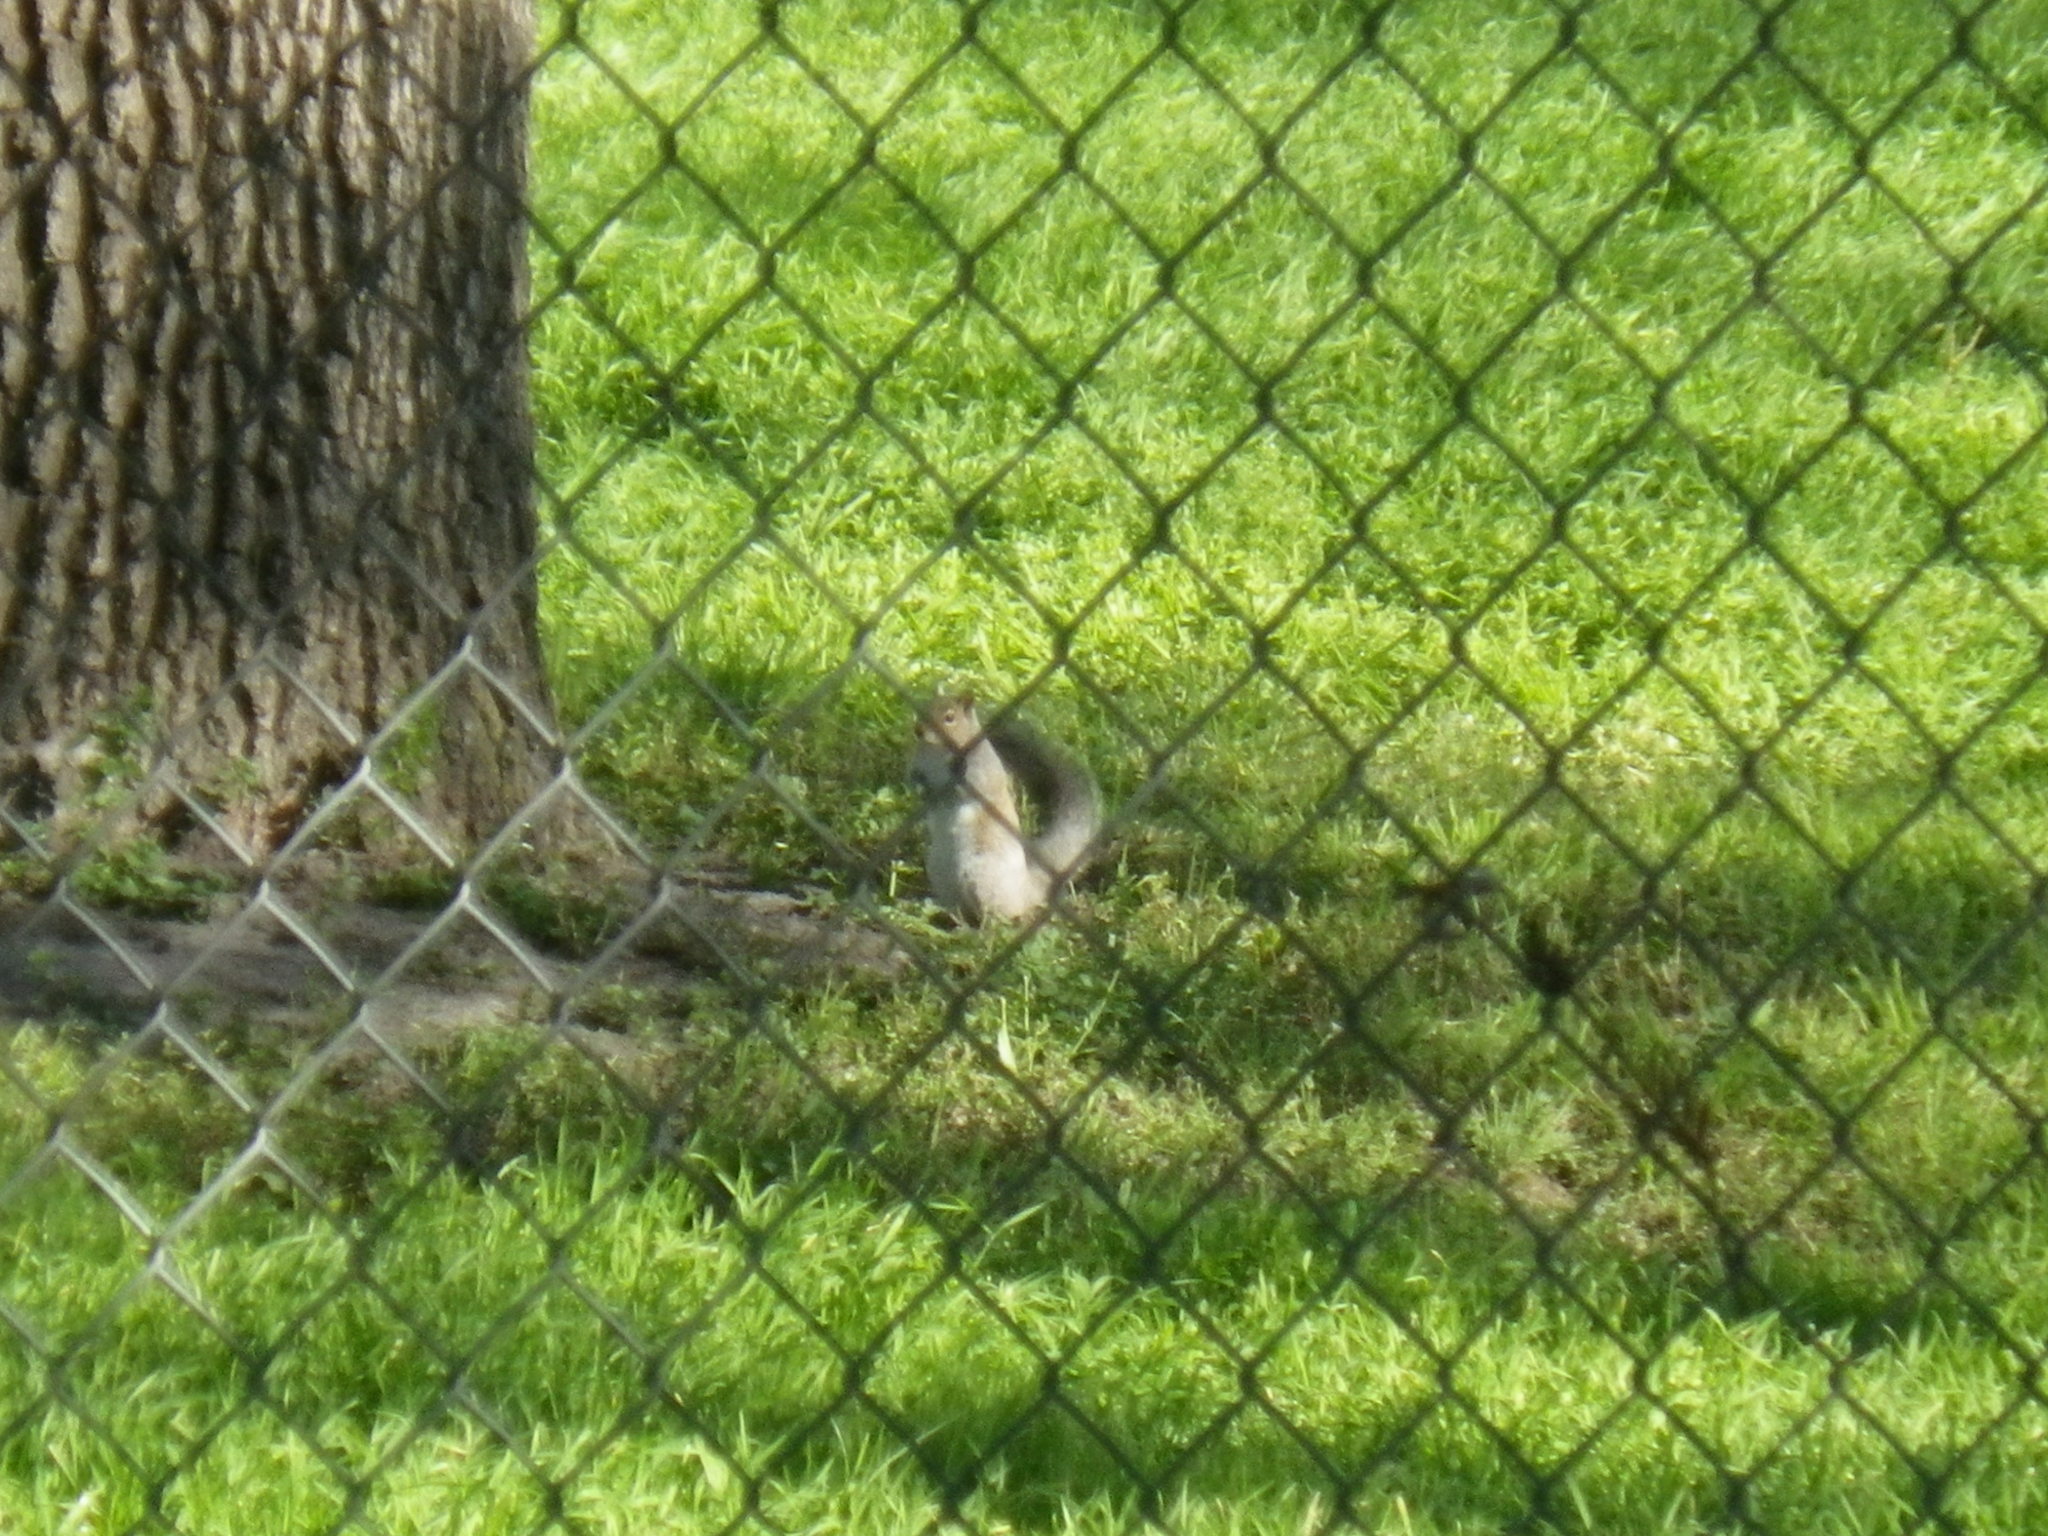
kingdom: Animalia
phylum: Chordata
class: Mammalia
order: Rodentia
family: Sciuridae
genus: Sciurus
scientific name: Sciurus carolinensis
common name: Eastern gray squirrel
